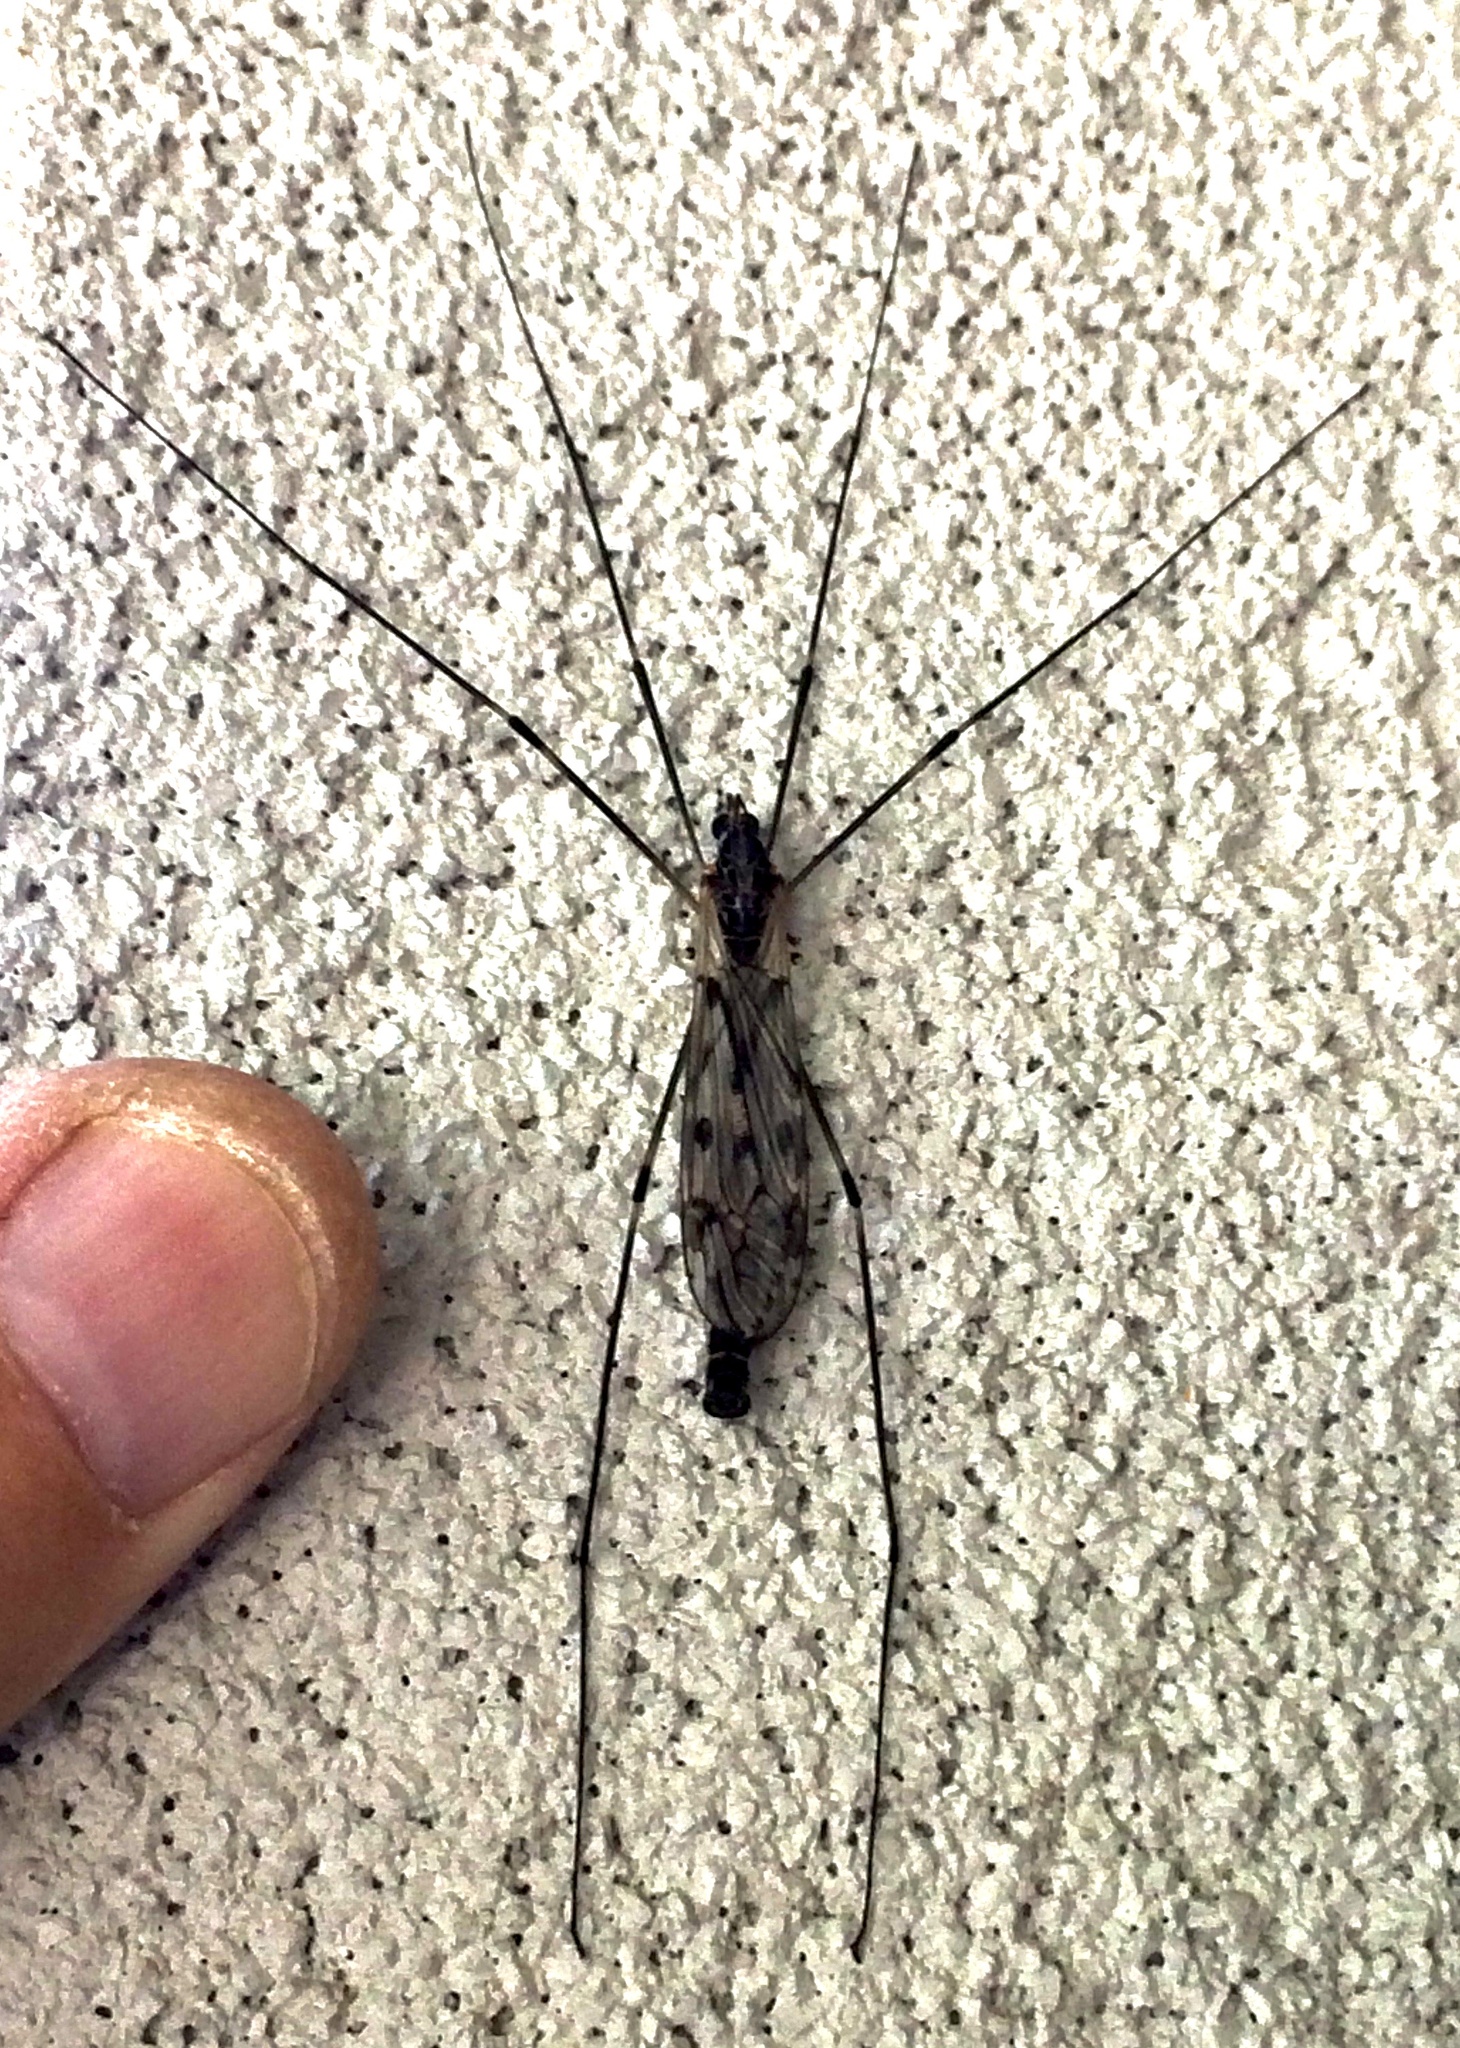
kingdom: Animalia
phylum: Arthropoda
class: Insecta
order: Diptera
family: Tipulidae
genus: Tipula
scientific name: Tipula abdominalis
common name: Giant crane fly
